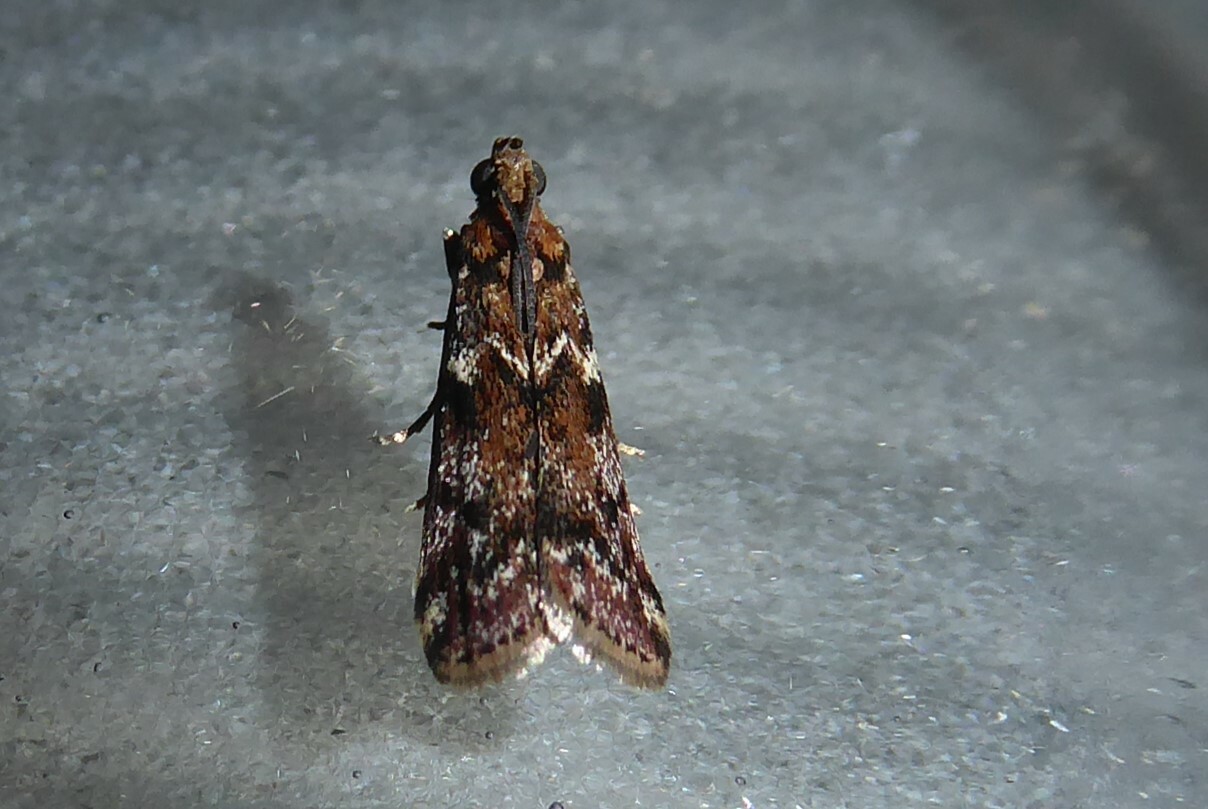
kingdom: Animalia
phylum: Arthropoda
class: Insecta
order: Lepidoptera
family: Pyralidae
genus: Ephestiopsis
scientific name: Ephestiopsis oenobarella
